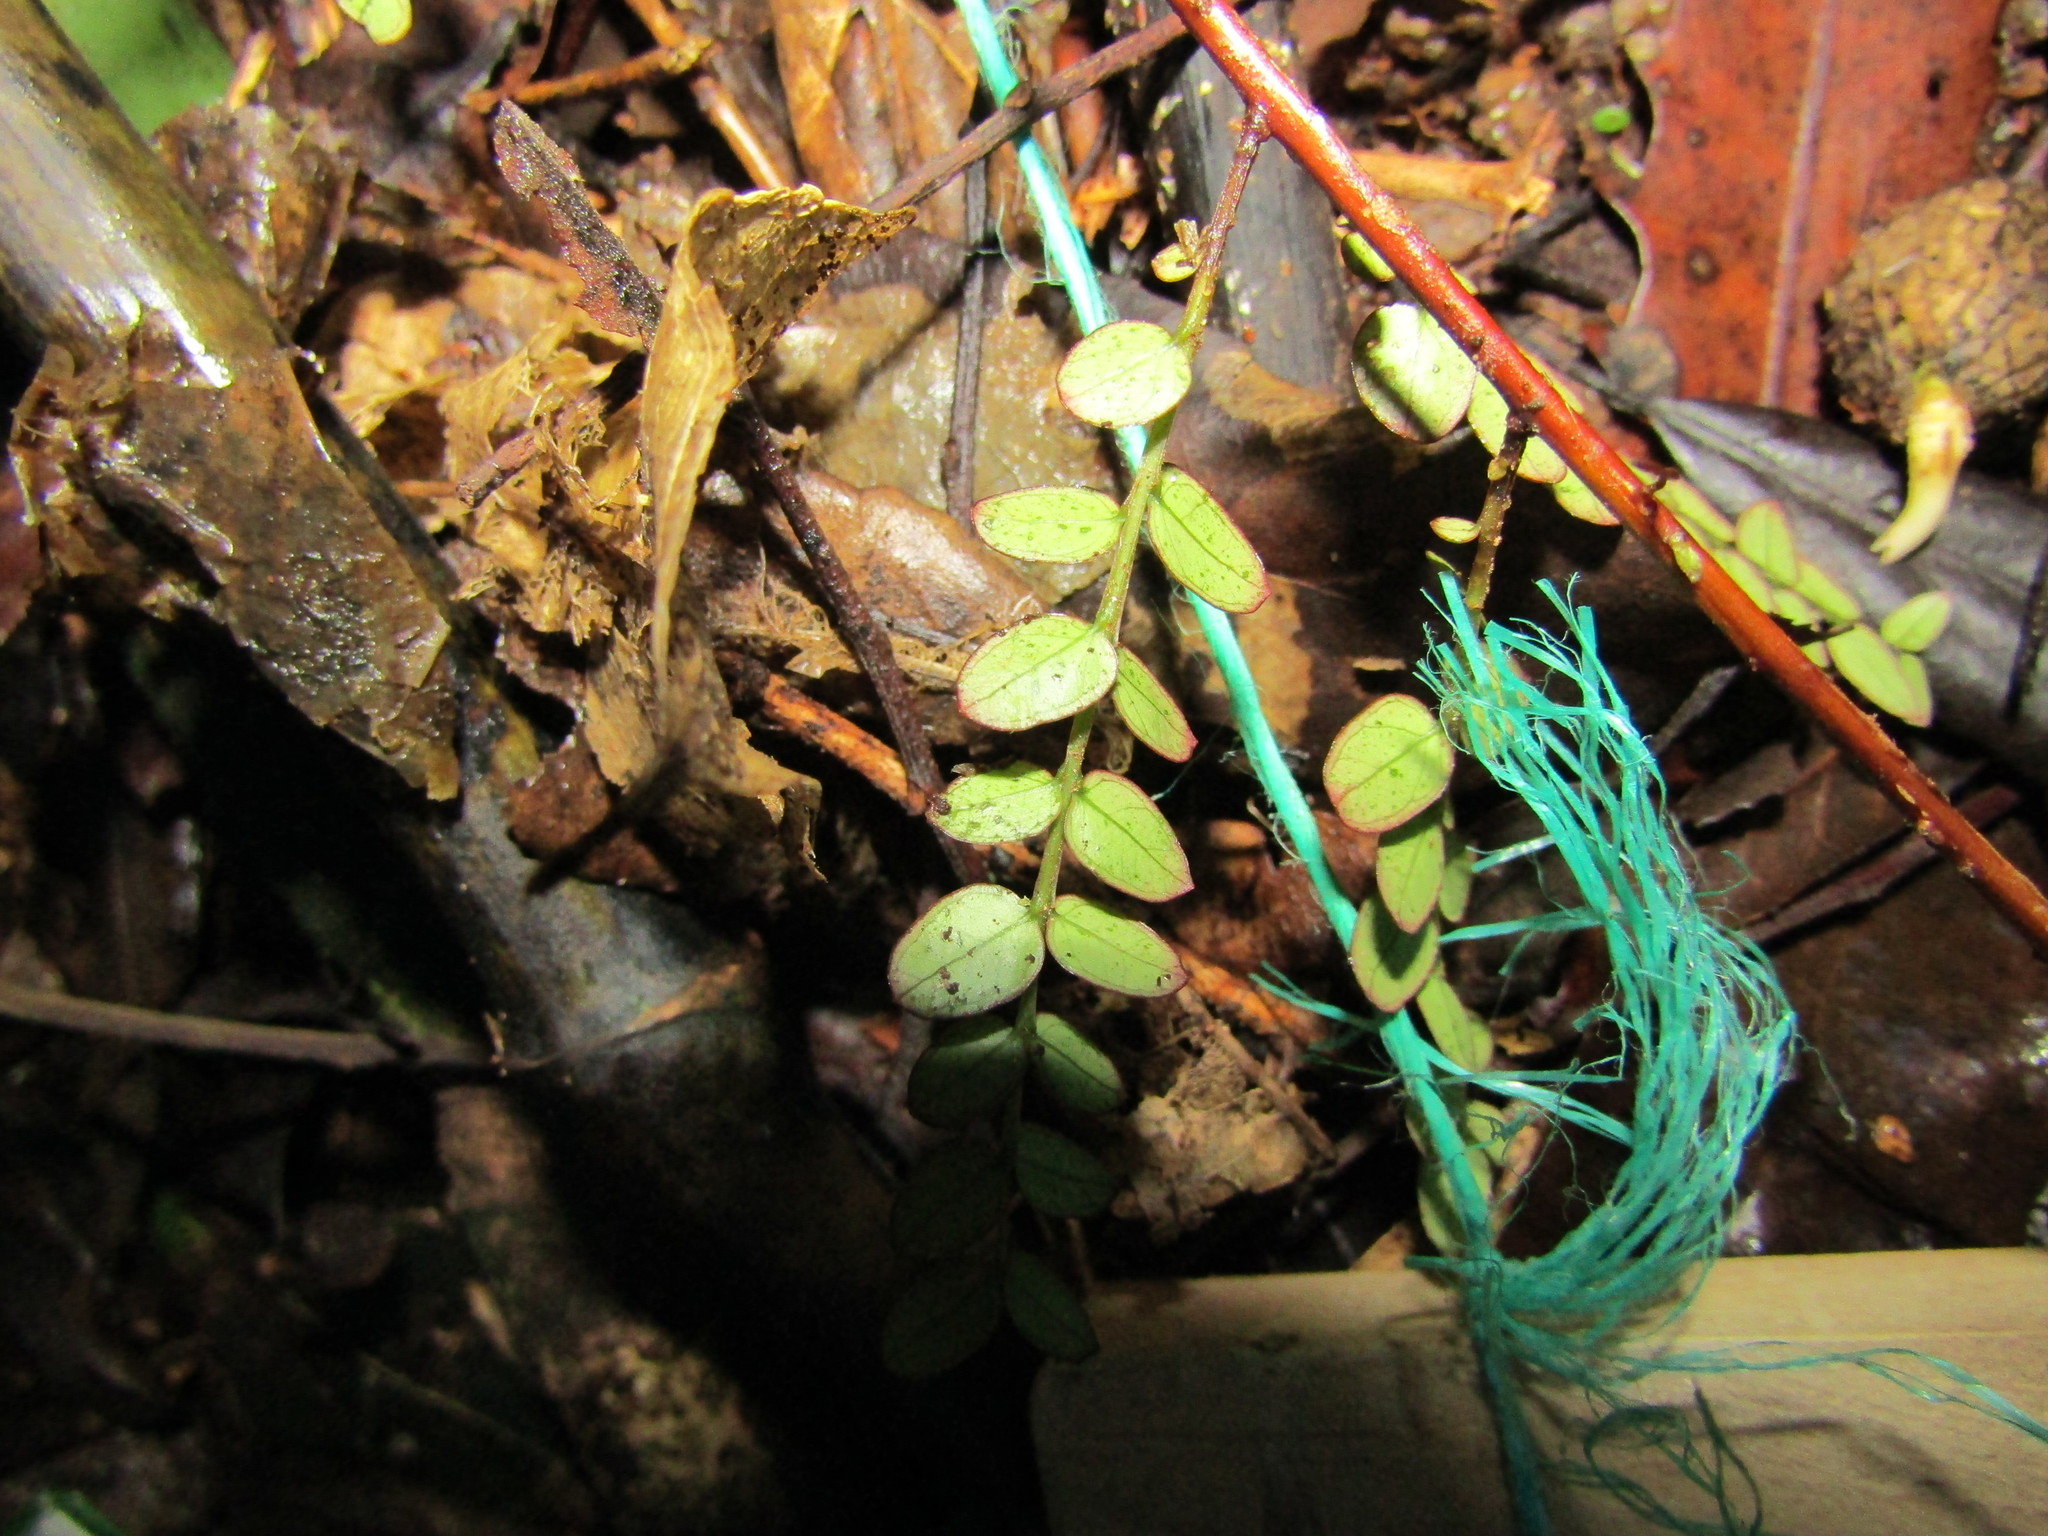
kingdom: Plantae
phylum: Tracheophyta
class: Magnoliopsida
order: Myrtales
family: Myrtaceae
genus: Metrosideros
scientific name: Metrosideros diffusa
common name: Small ratavine
